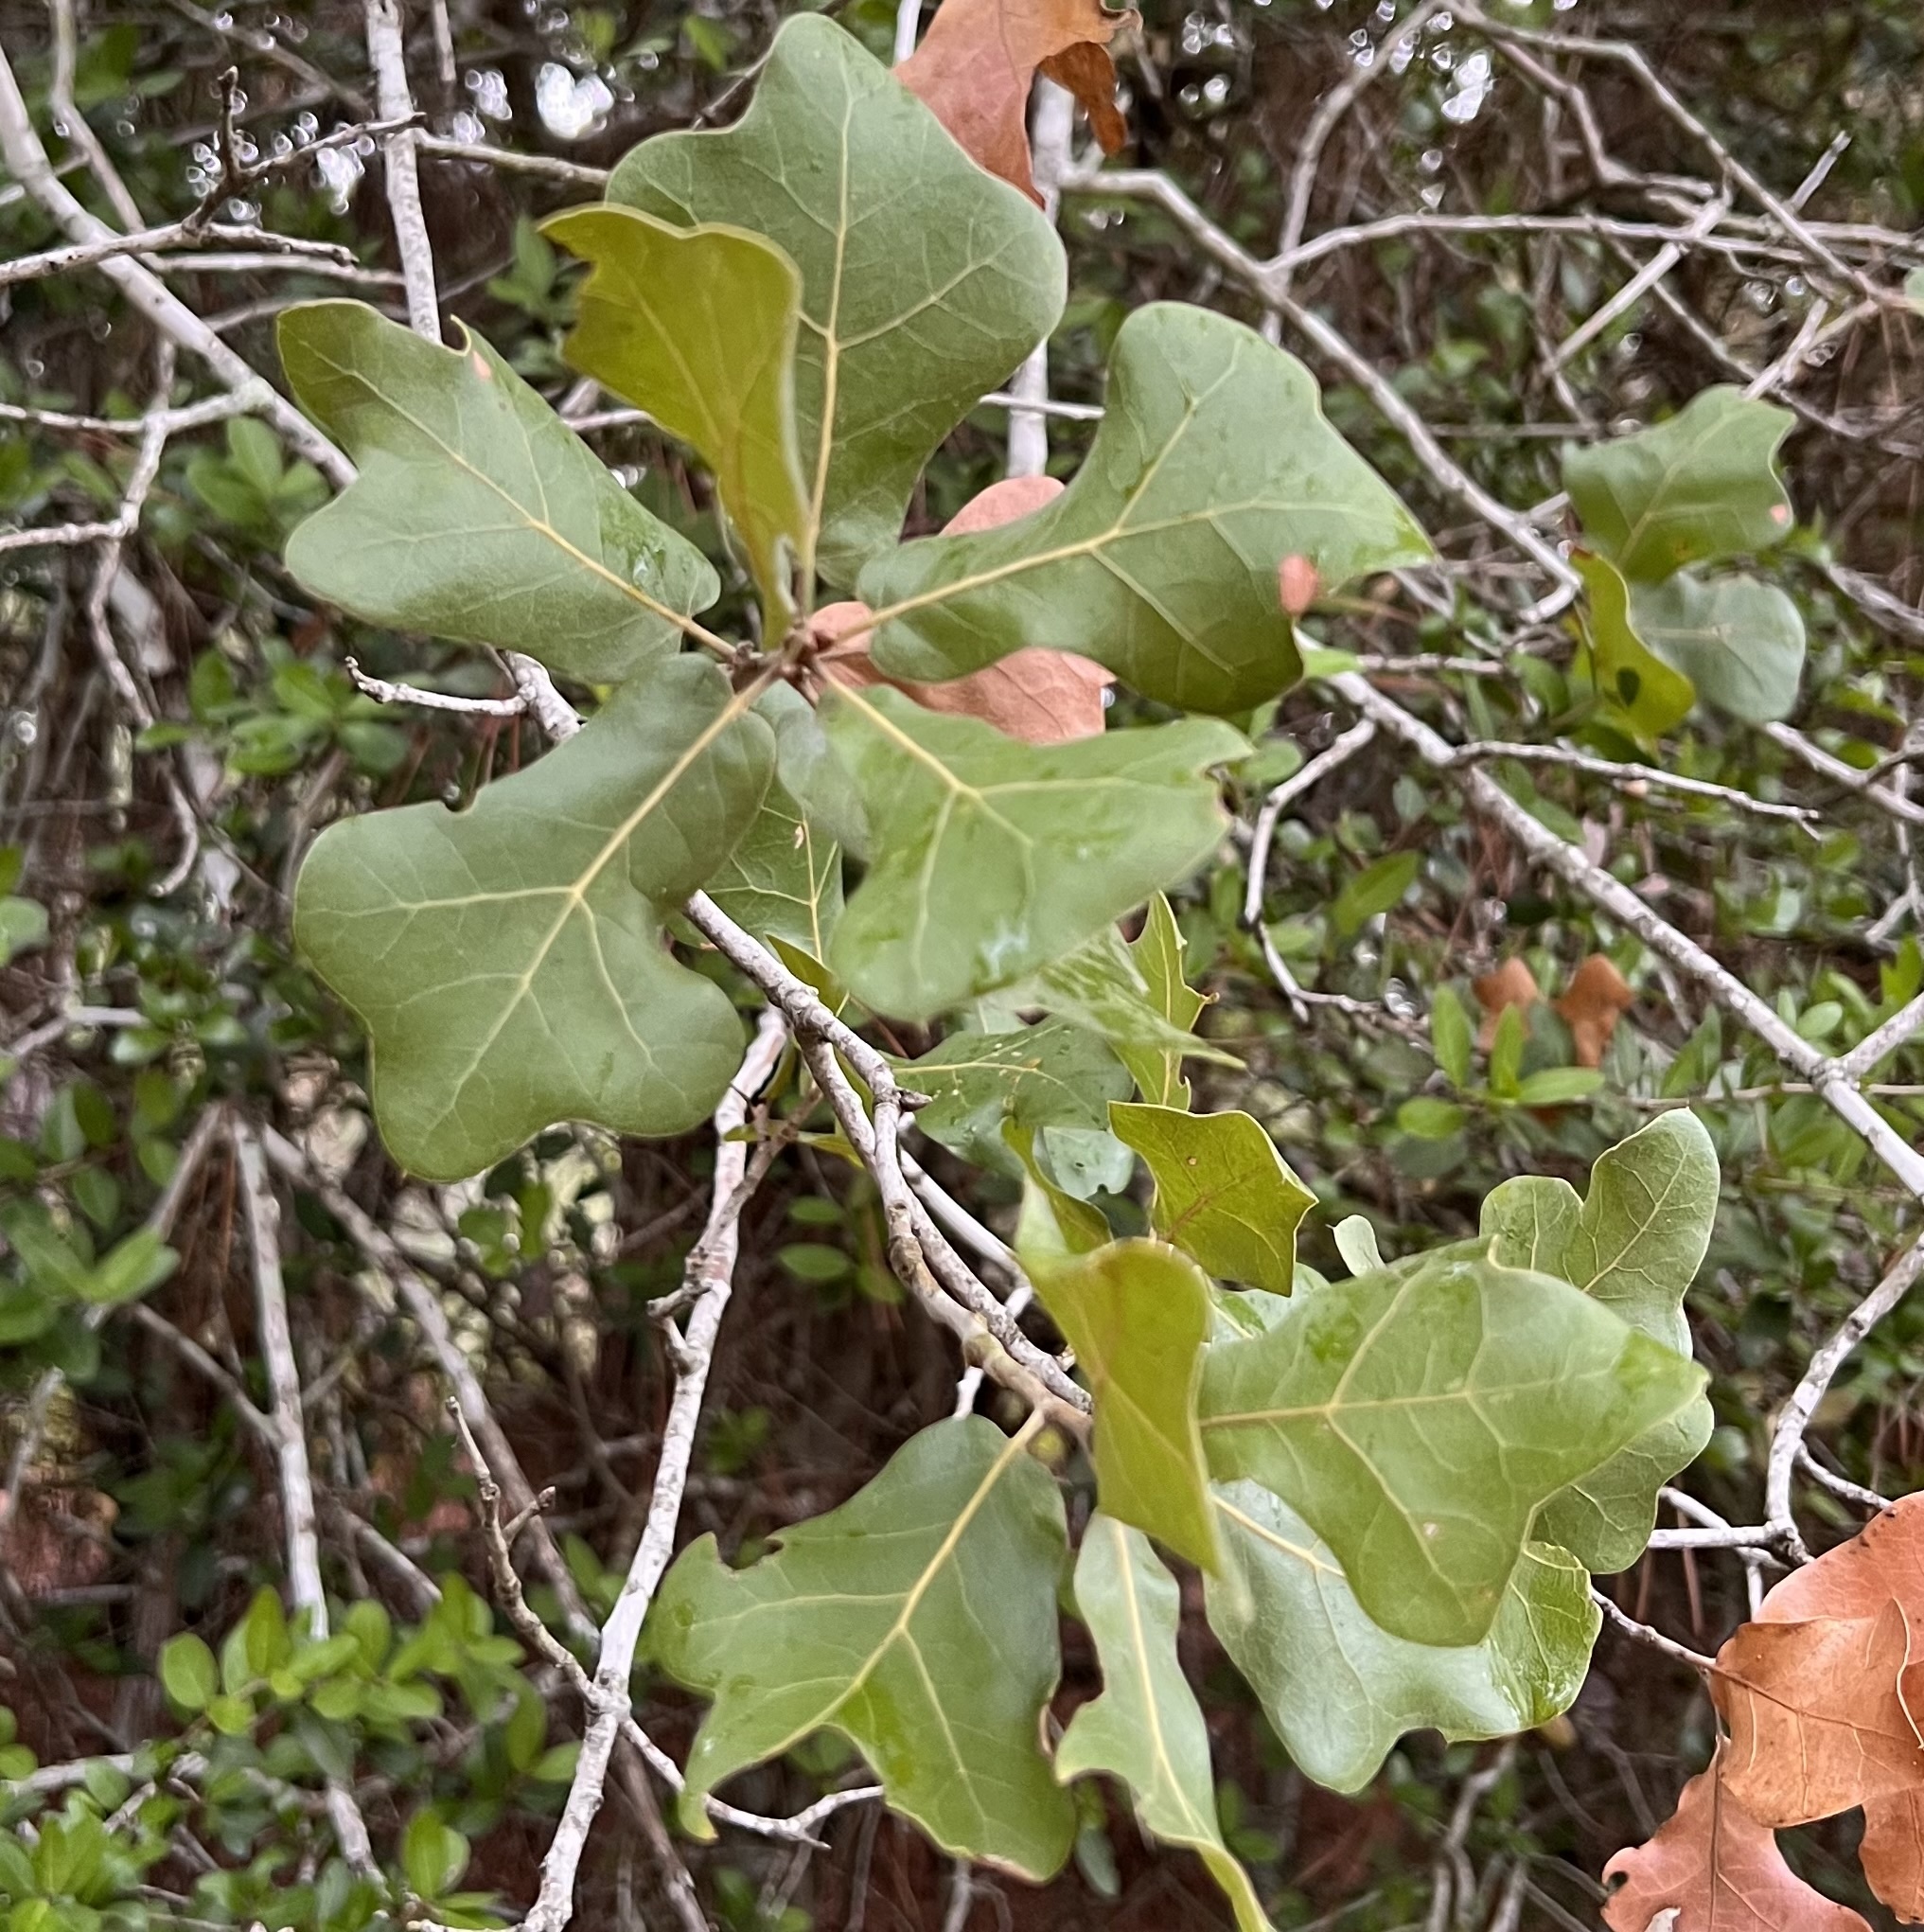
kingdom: Plantae
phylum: Tracheophyta
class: Magnoliopsida
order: Fagales
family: Fagaceae
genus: Quercus
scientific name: Quercus marilandica
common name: Blackjack oak
